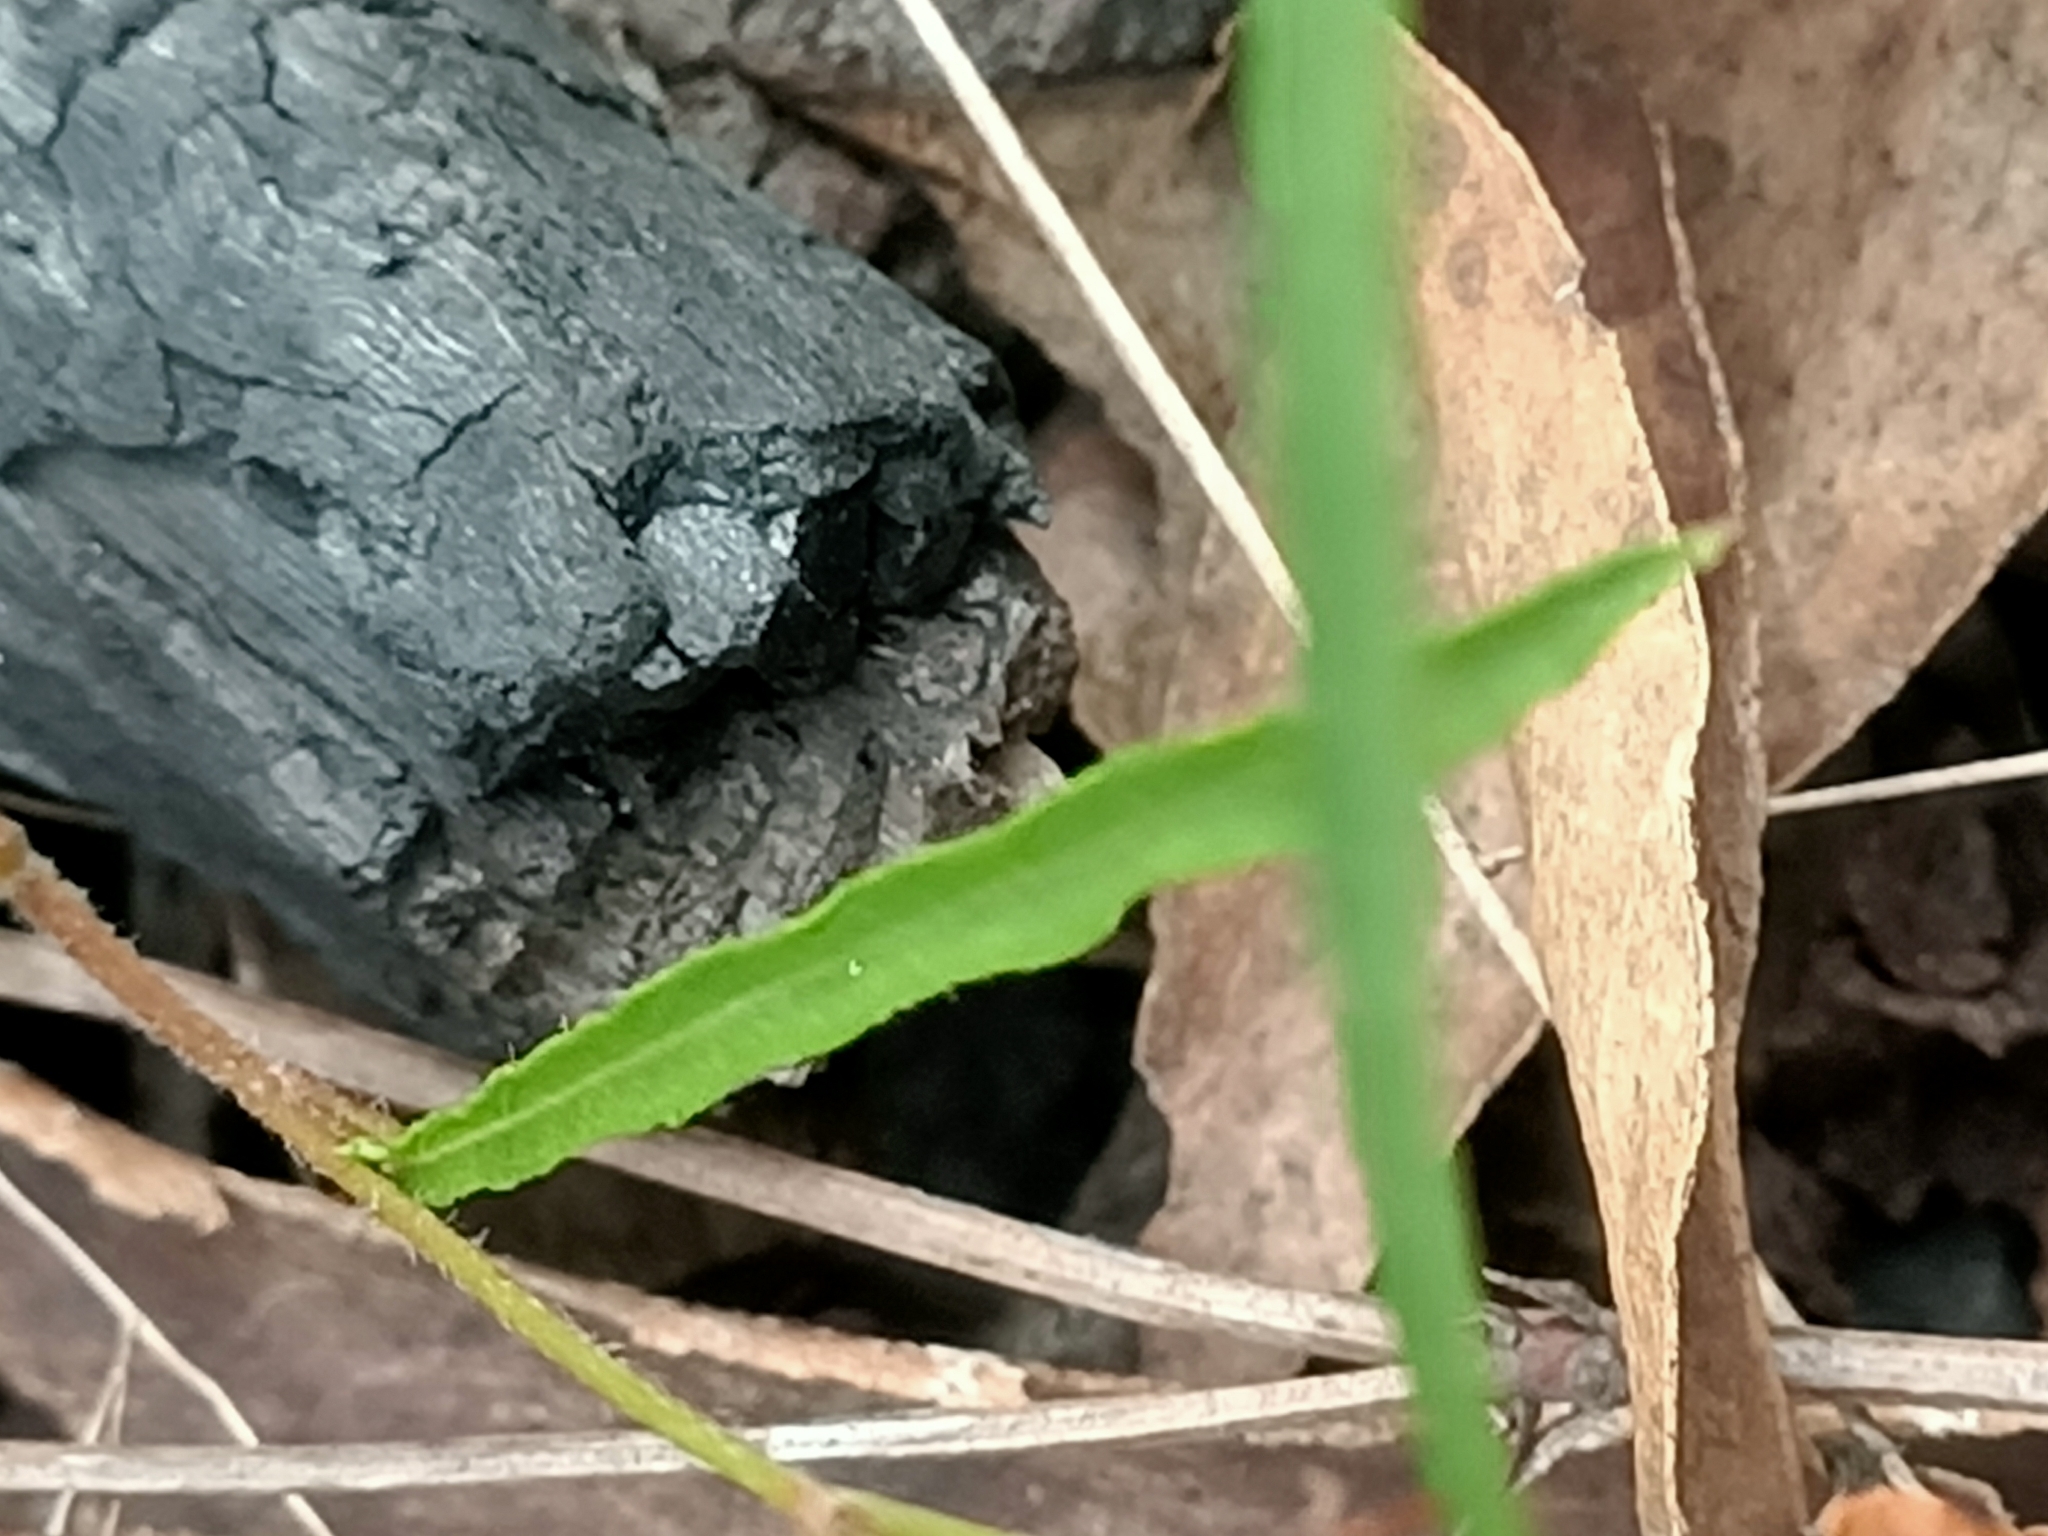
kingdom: Plantae
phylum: Tracheophyta
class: Magnoliopsida
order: Solanales
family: Convolvulaceae
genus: Polymeria
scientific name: Polymeria calycina
